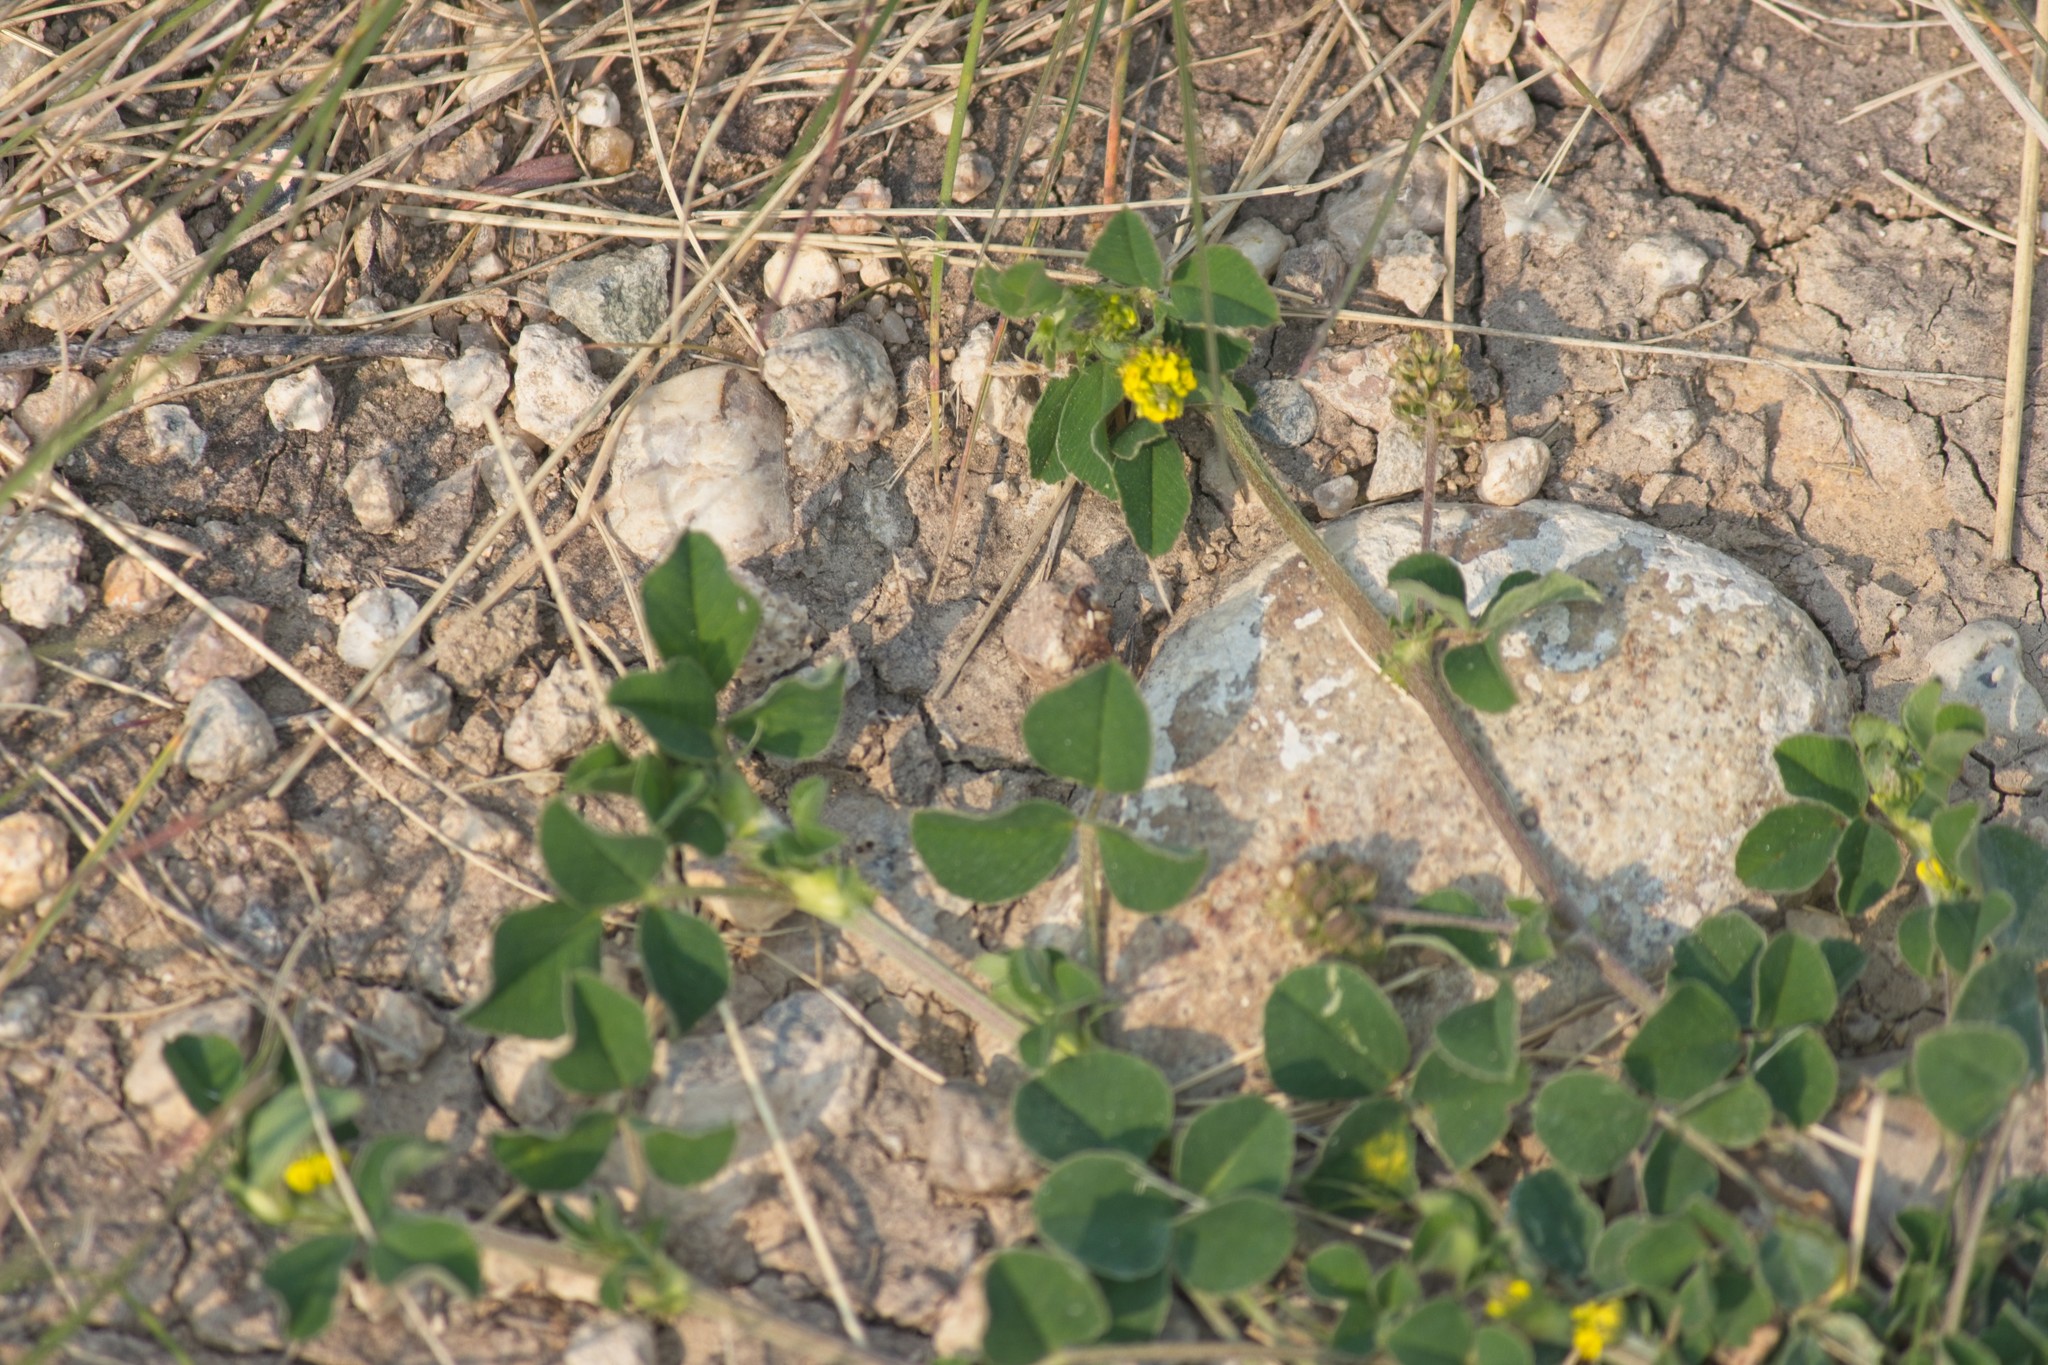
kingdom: Plantae
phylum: Tracheophyta
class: Magnoliopsida
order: Fabales
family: Fabaceae
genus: Medicago
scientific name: Medicago lupulina
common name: Black medick
